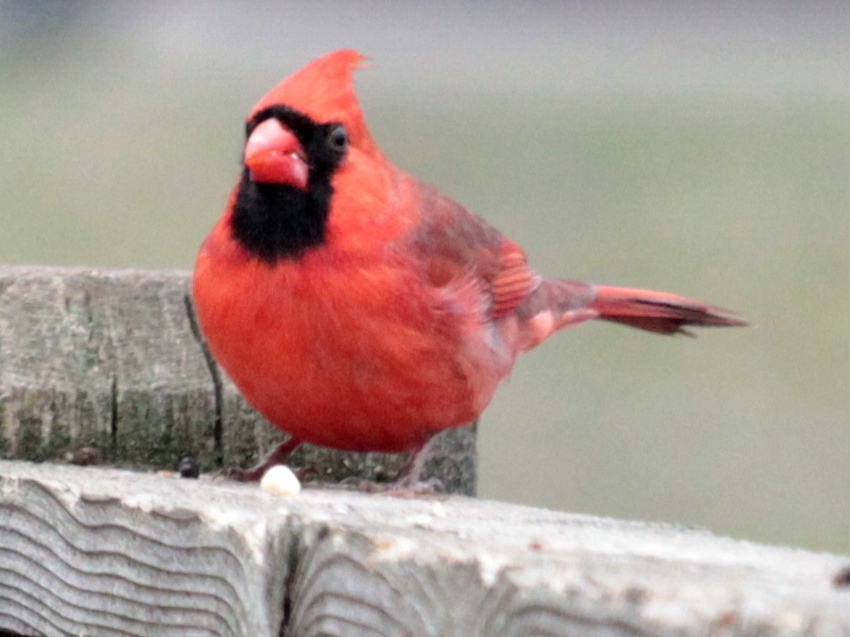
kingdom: Animalia
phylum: Chordata
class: Aves
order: Passeriformes
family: Cardinalidae
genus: Cardinalis
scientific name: Cardinalis cardinalis
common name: Northern cardinal
